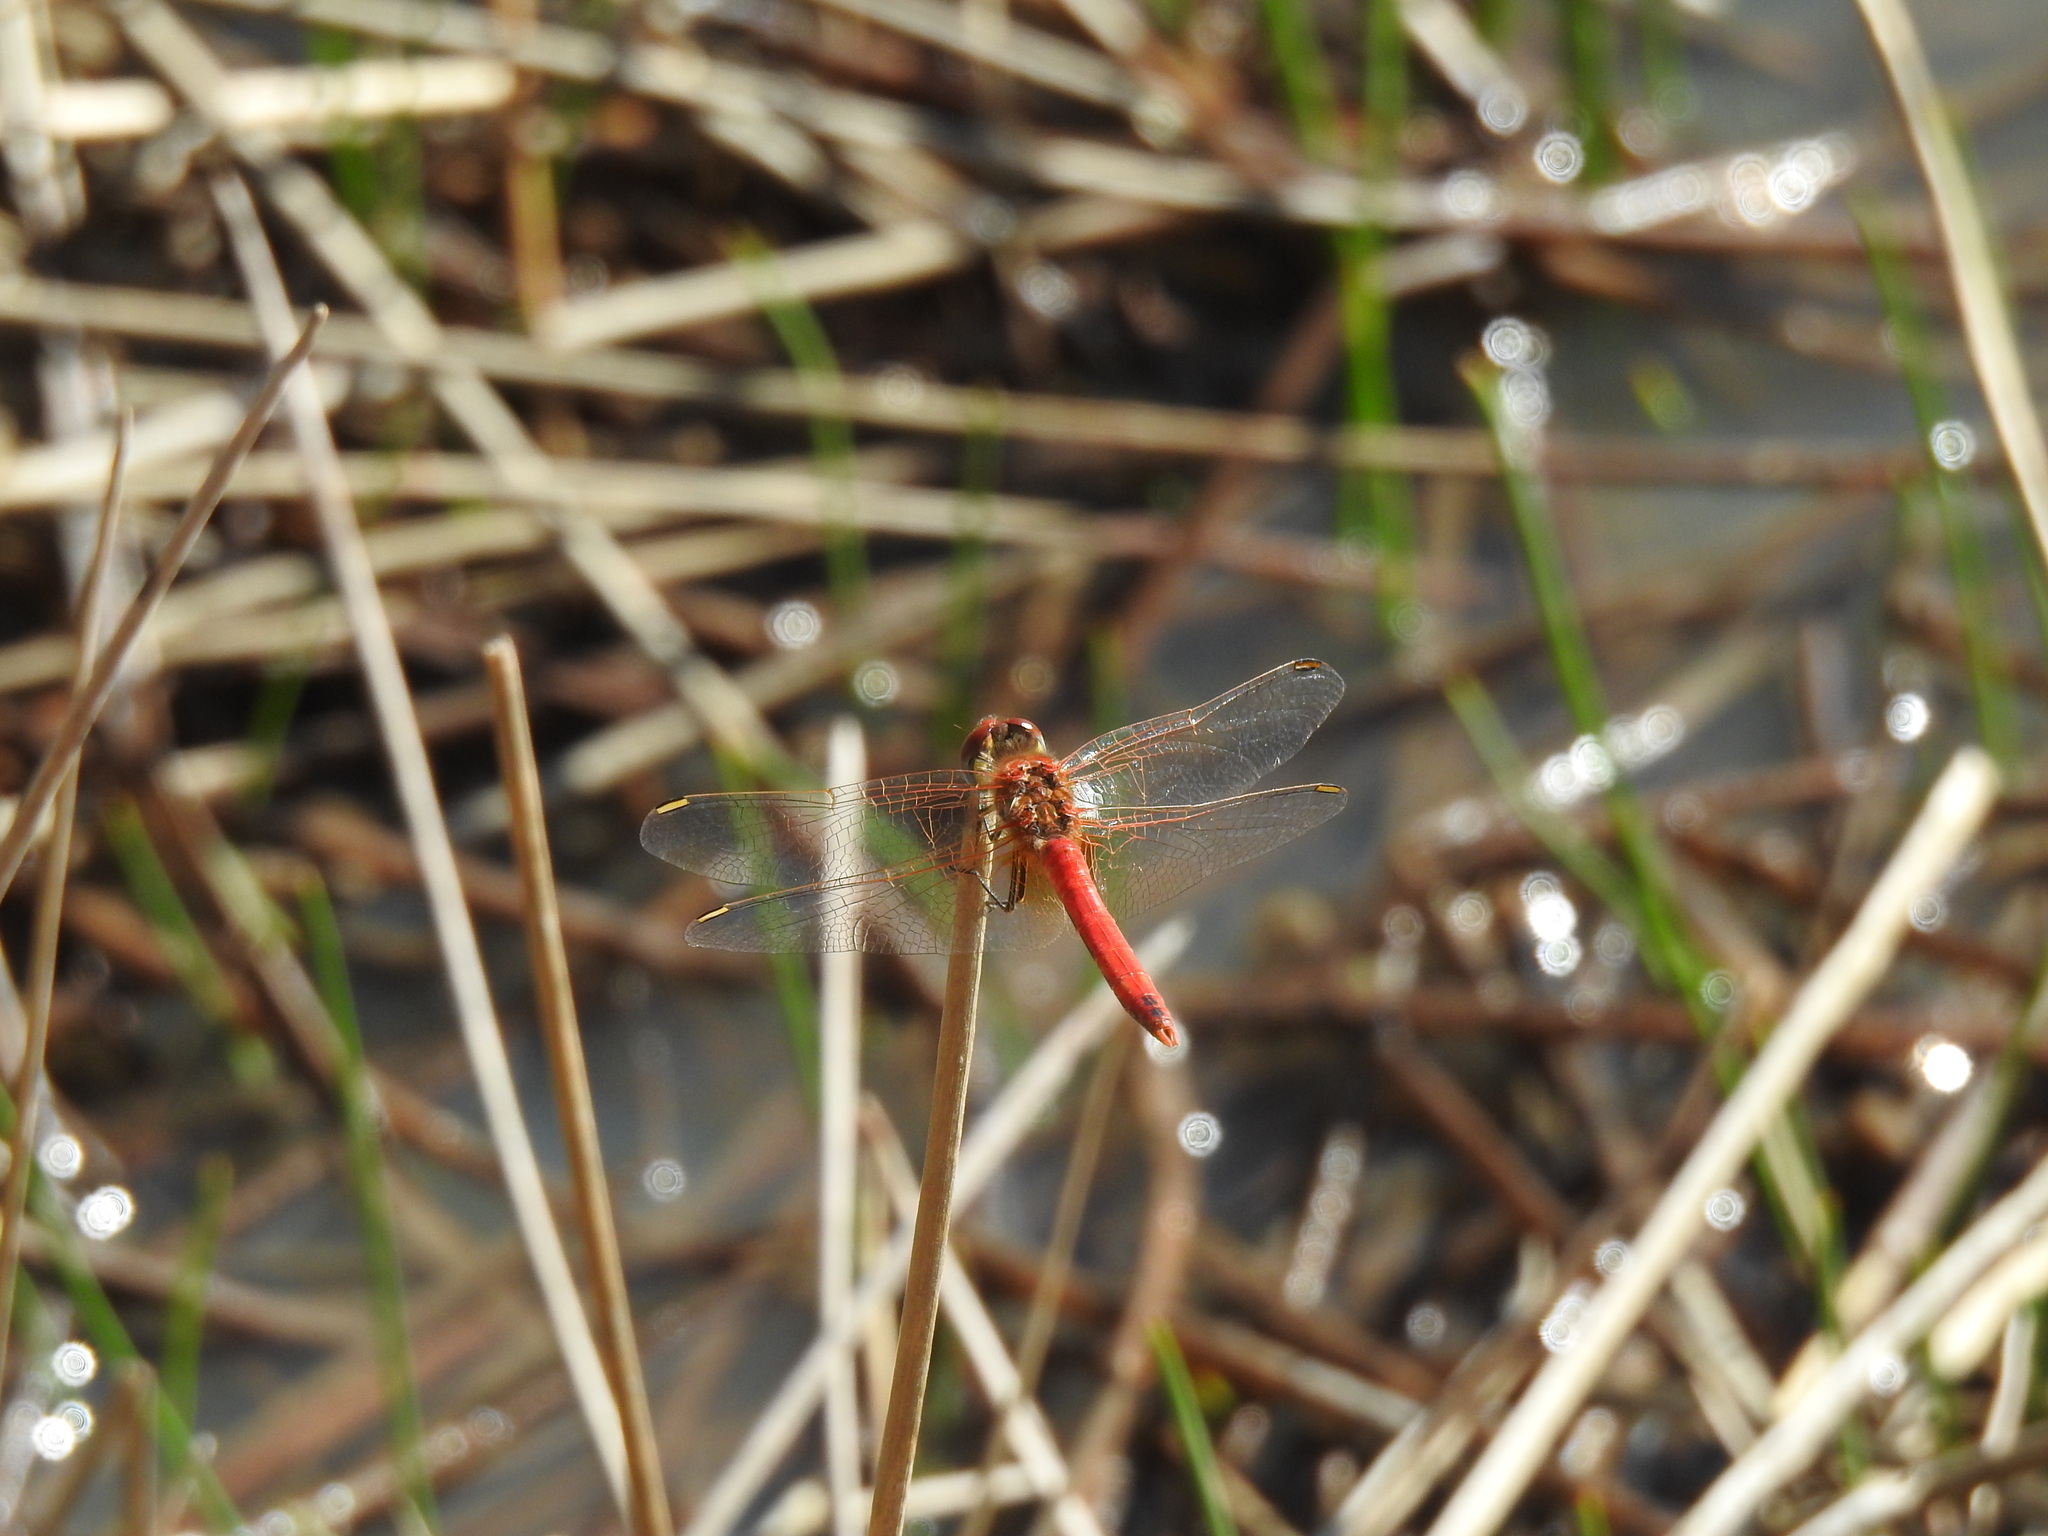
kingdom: Animalia
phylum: Arthropoda
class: Insecta
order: Odonata
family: Libellulidae
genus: Sympetrum
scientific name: Sympetrum fonscolombii
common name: Red-veined darter
